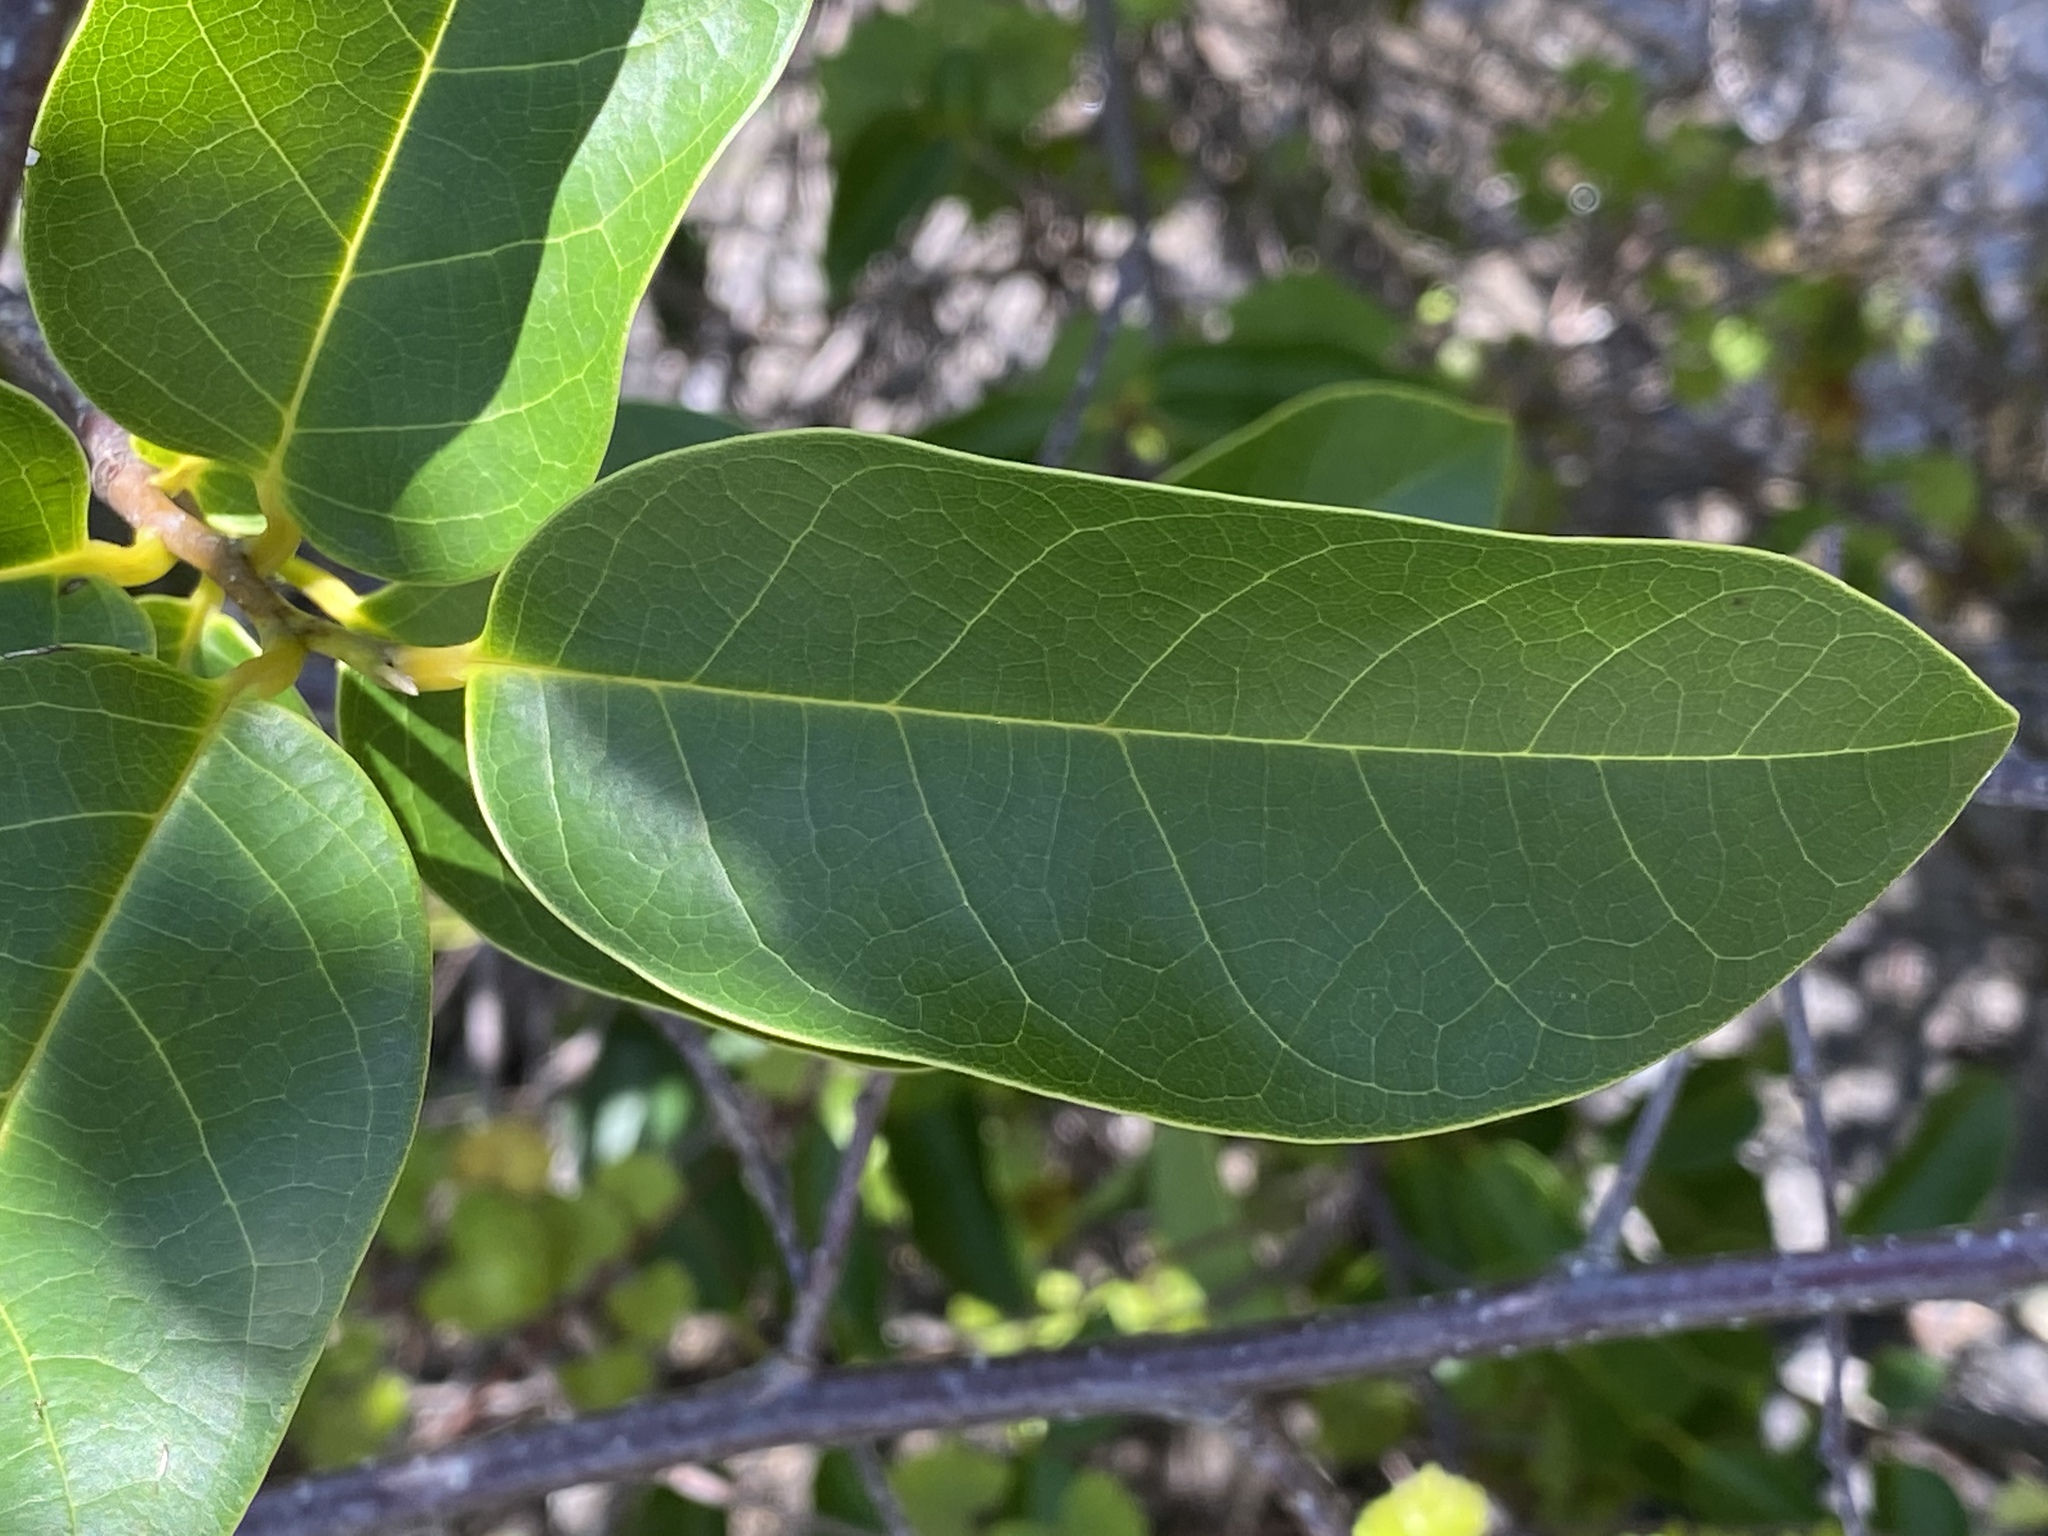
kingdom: Plantae
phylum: Tracheophyta
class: Magnoliopsida
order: Magnoliales
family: Annonaceae
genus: Annona
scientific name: Annona glabra
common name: Monkey apple
